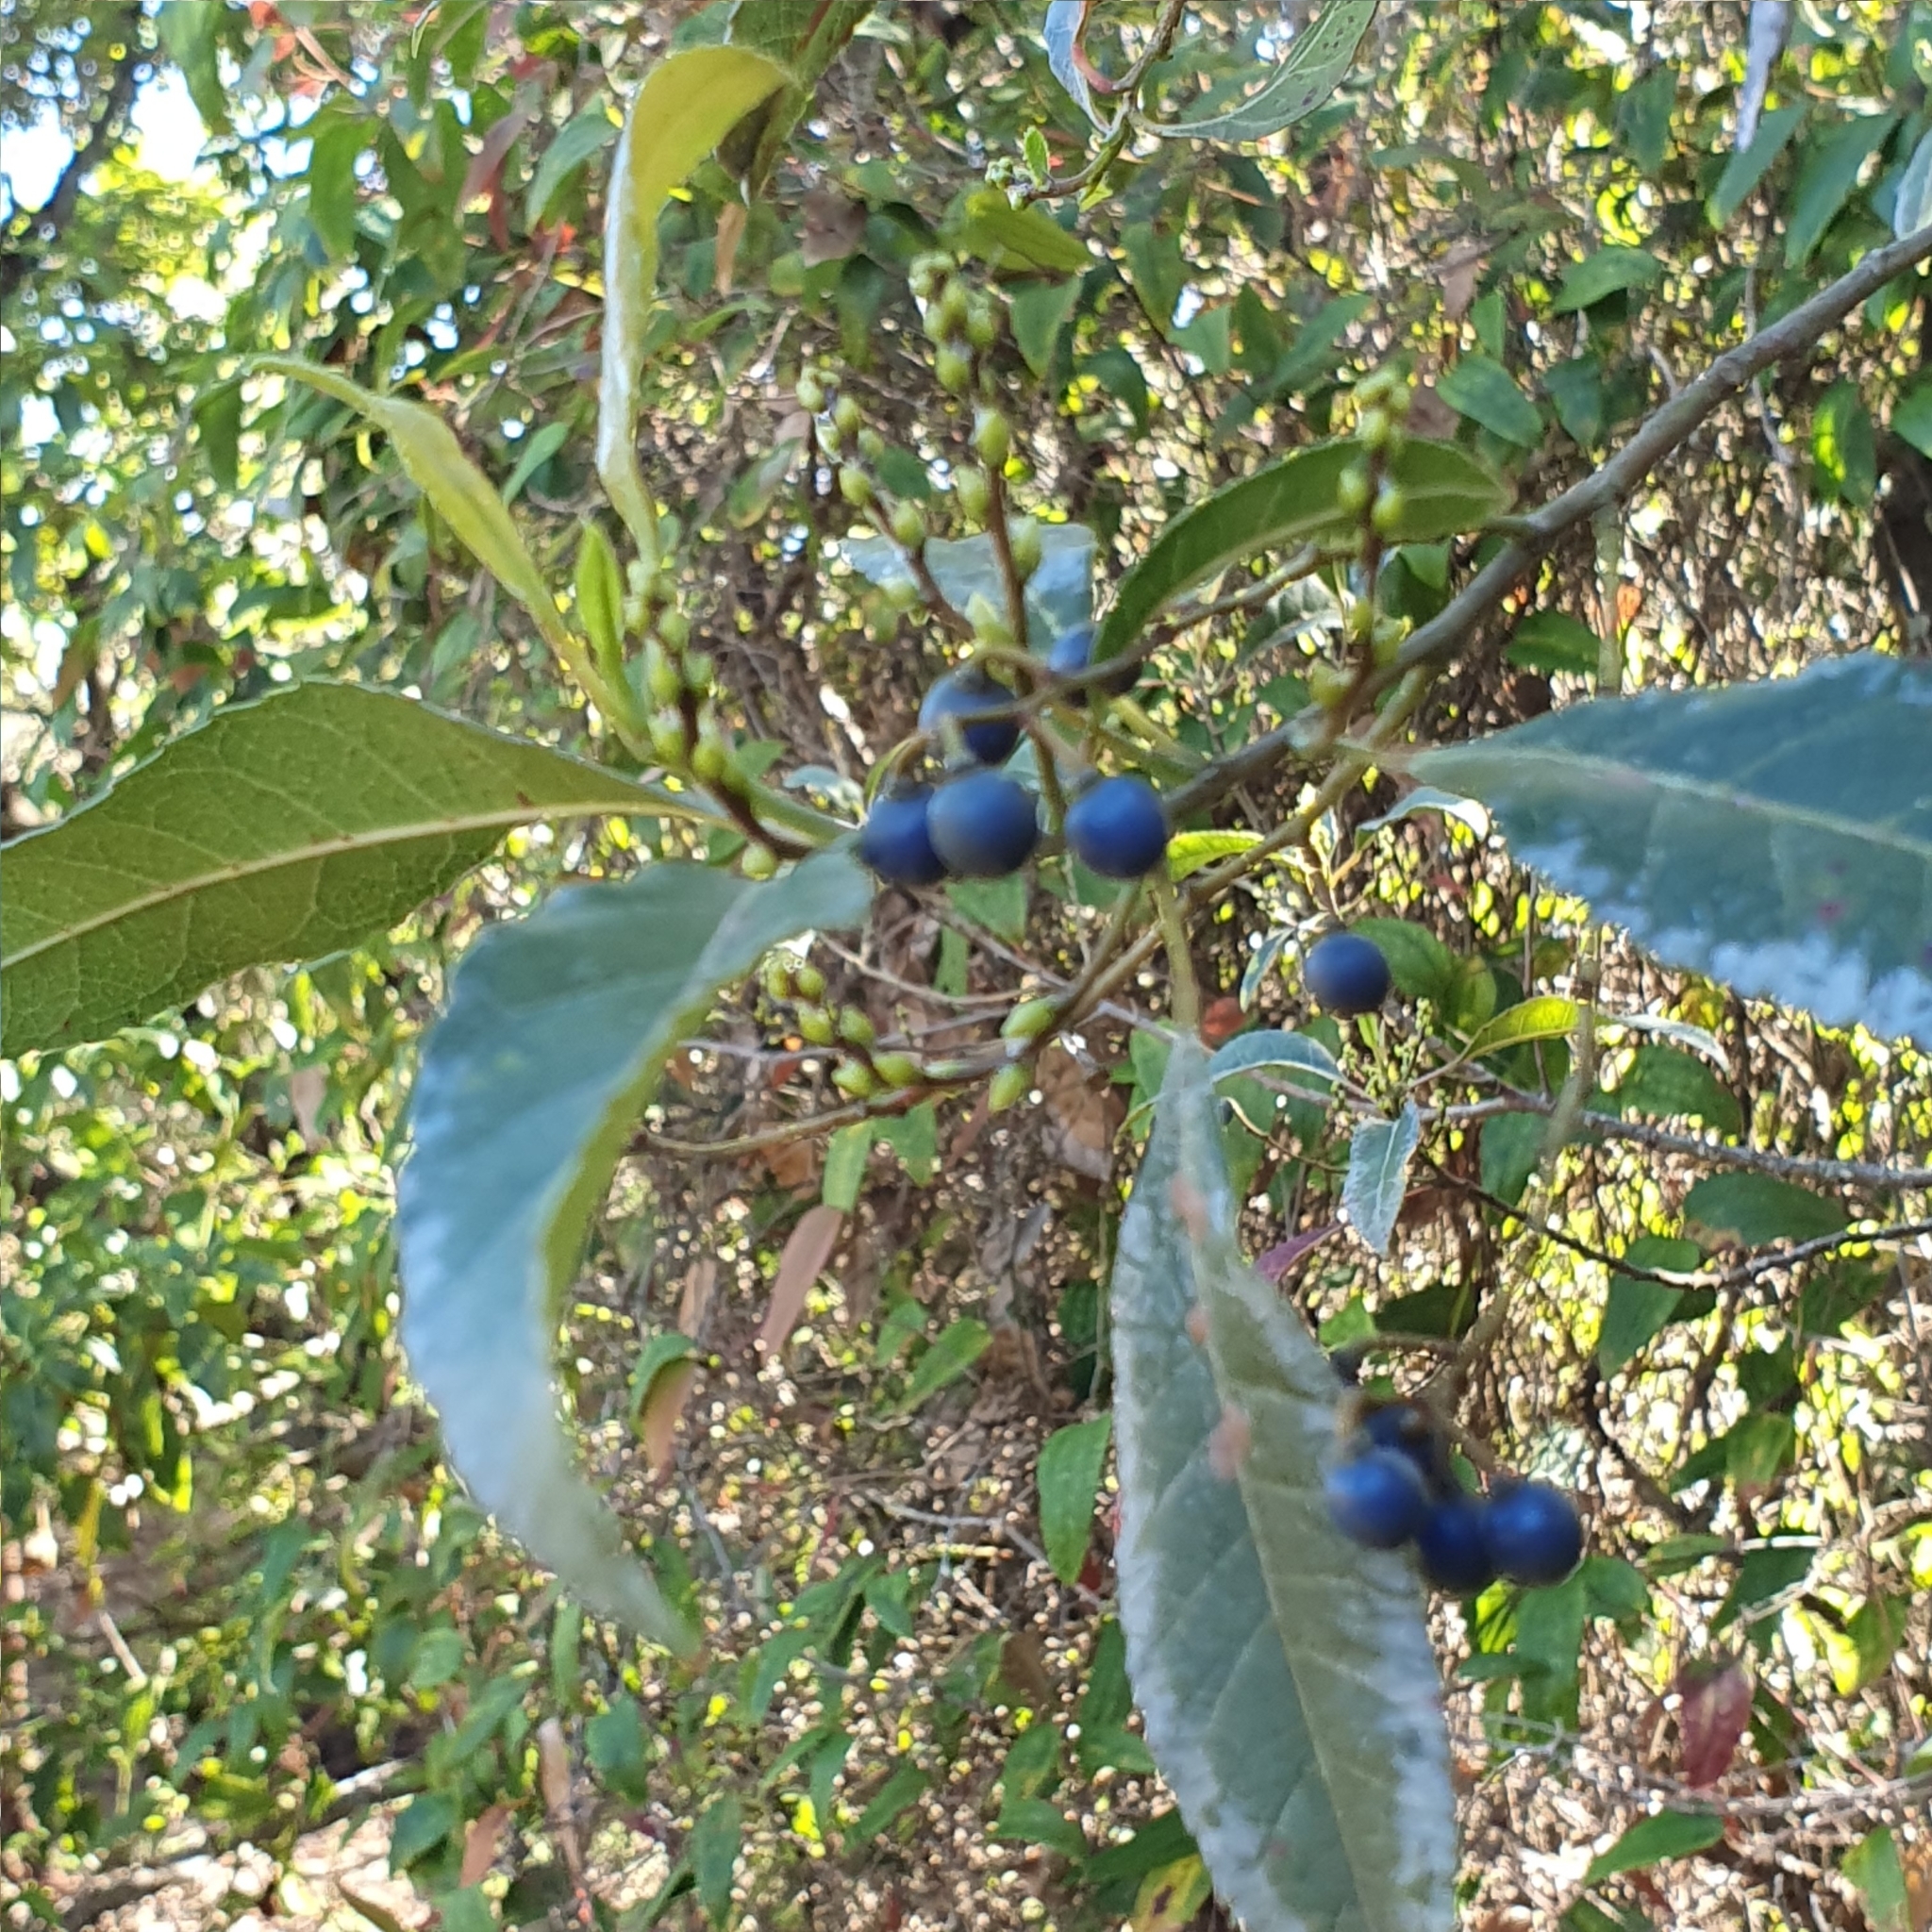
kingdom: Plantae
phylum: Tracheophyta
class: Magnoliopsida
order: Oxalidales
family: Elaeocarpaceae
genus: Elaeocarpus
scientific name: Elaeocarpus reticulatus
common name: Ash quandong
